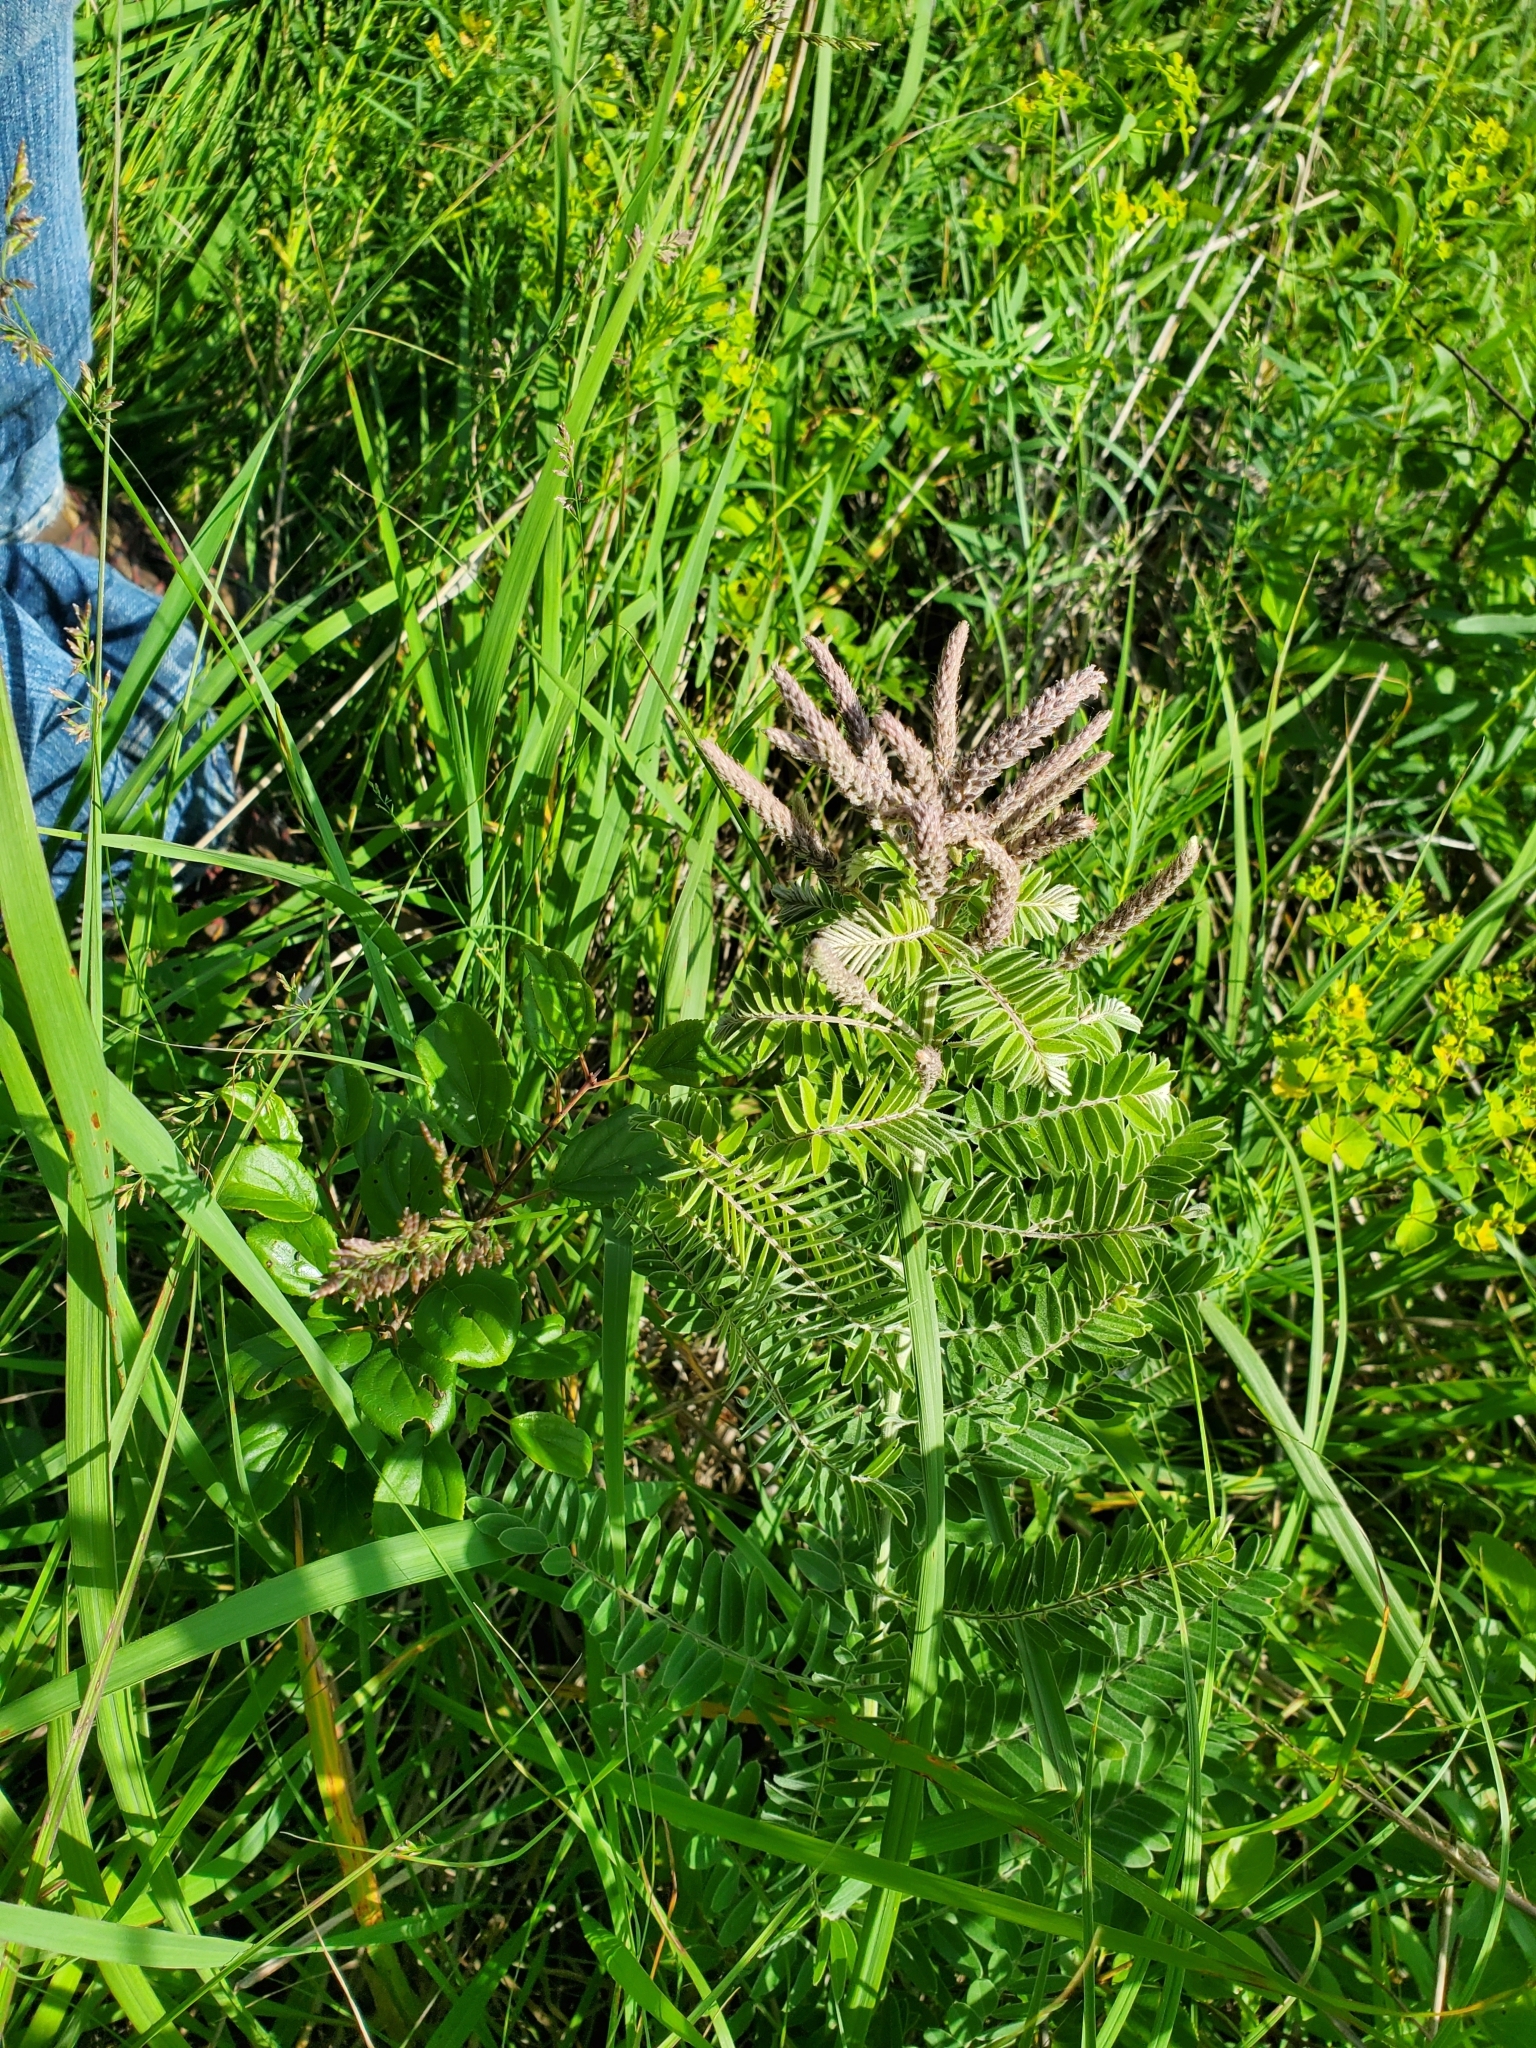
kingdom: Plantae
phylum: Tracheophyta
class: Magnoliopsida
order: Fabales
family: Fabaceae
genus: Amorpha
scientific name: Amorpha canescens
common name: Leadplant
